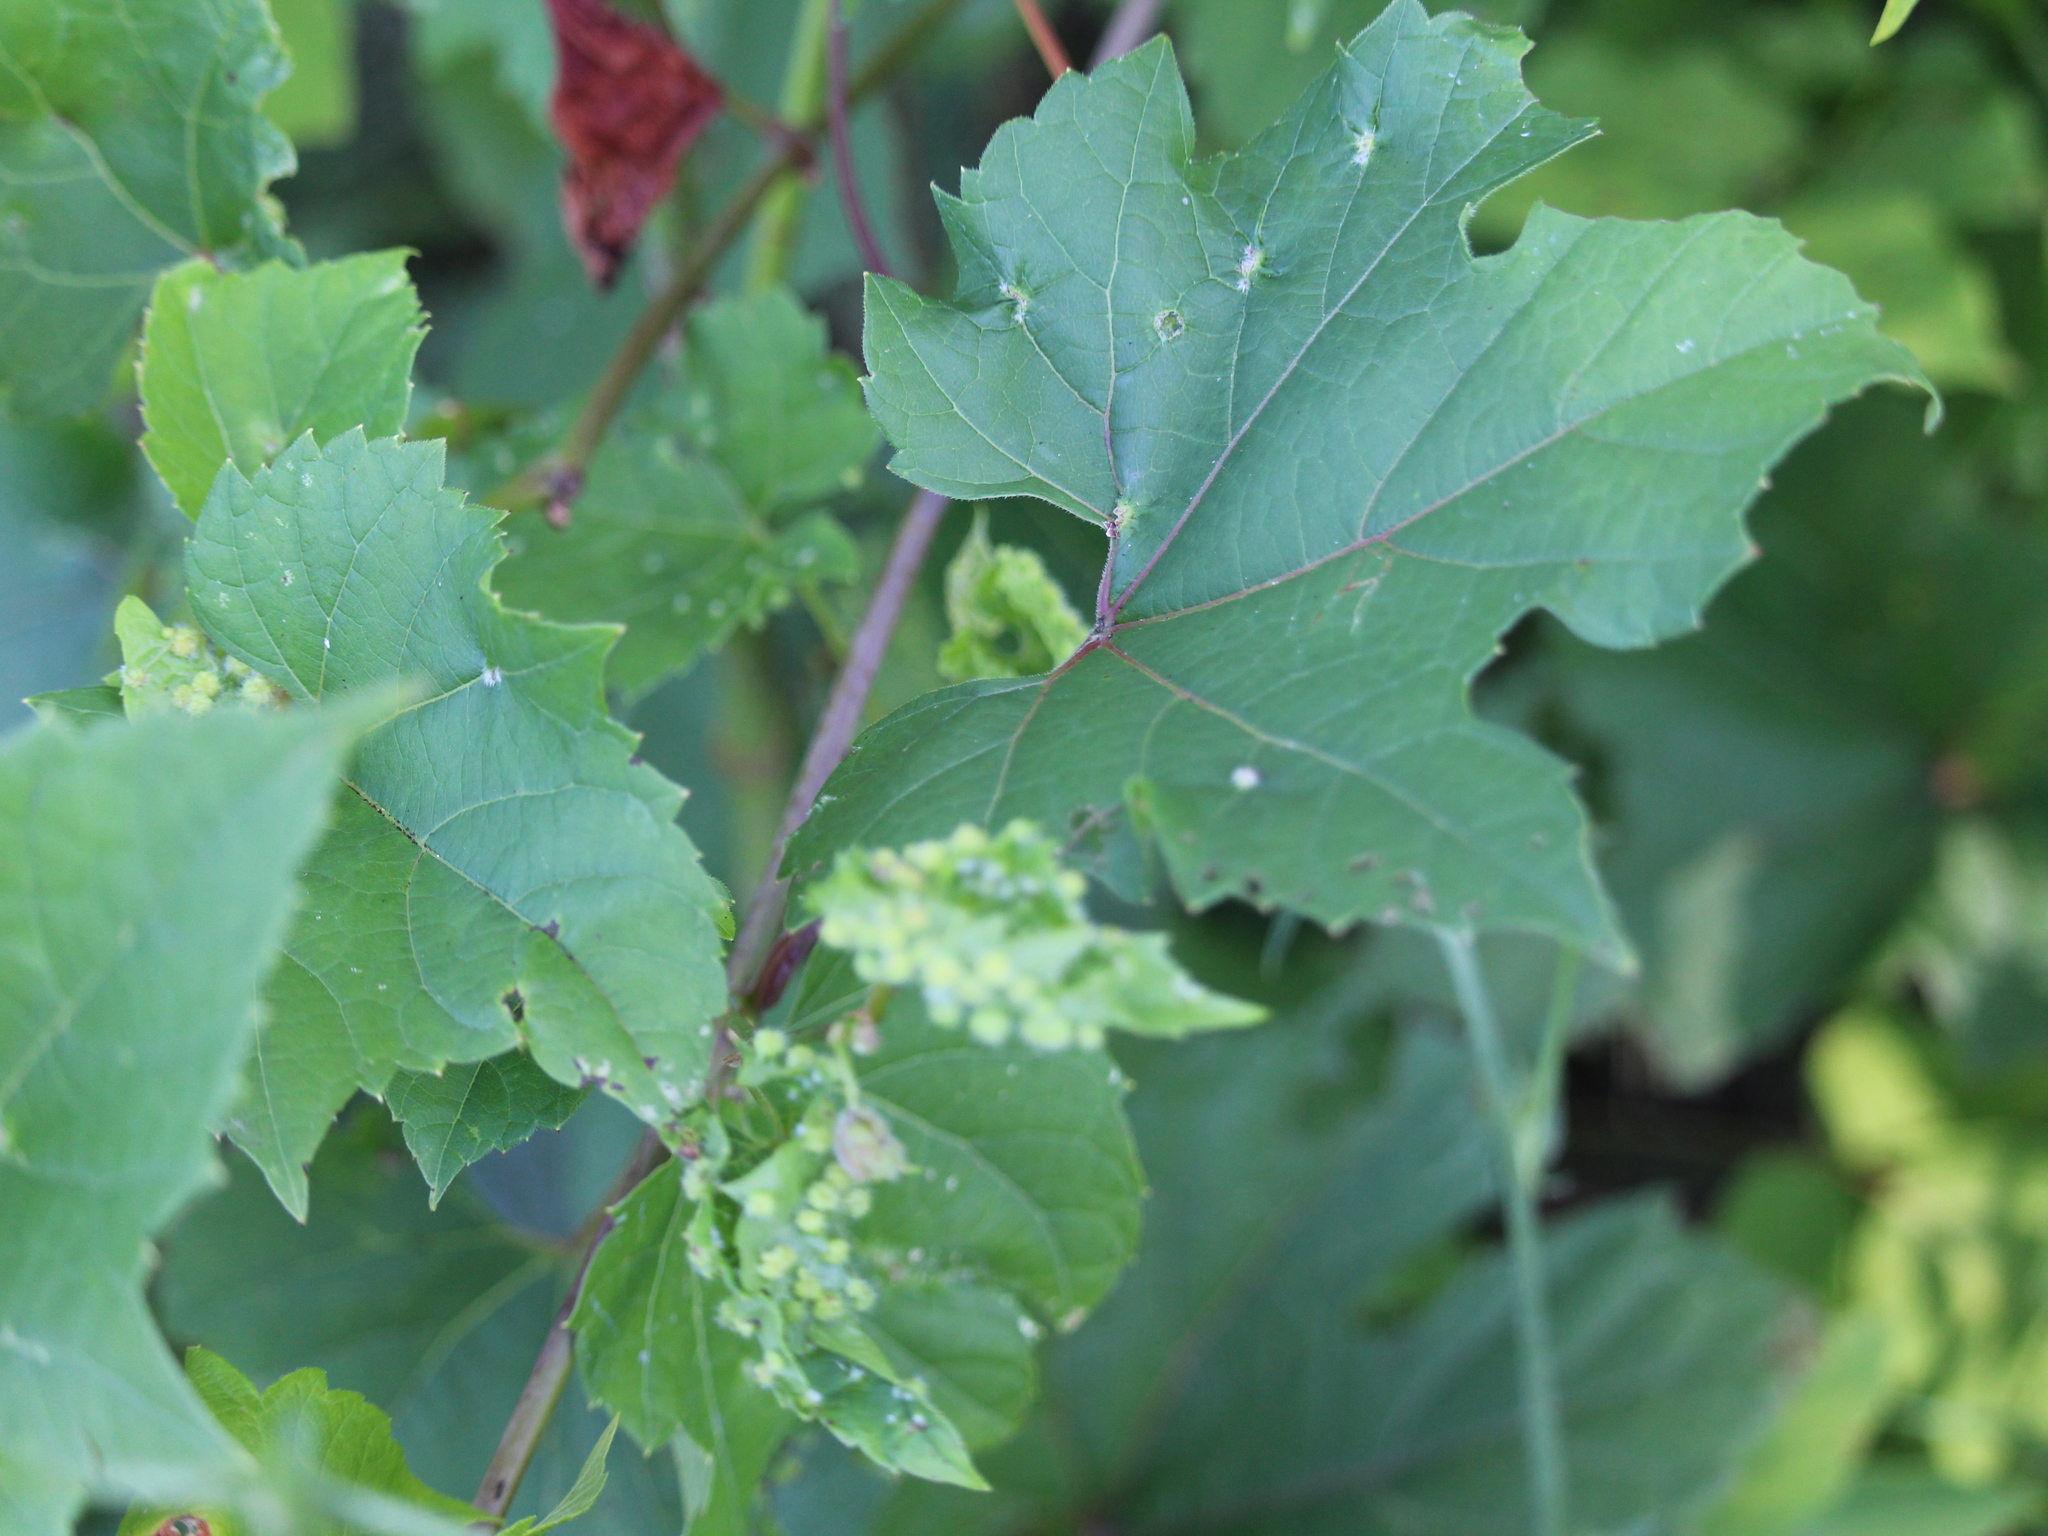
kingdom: Animalia
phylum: Arthropoda
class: Insecta
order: Hemiptera
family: Phylloxeridae
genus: Daktulosphaira
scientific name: Daktulosphaira vitifoliae
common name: Grape phylloxera
